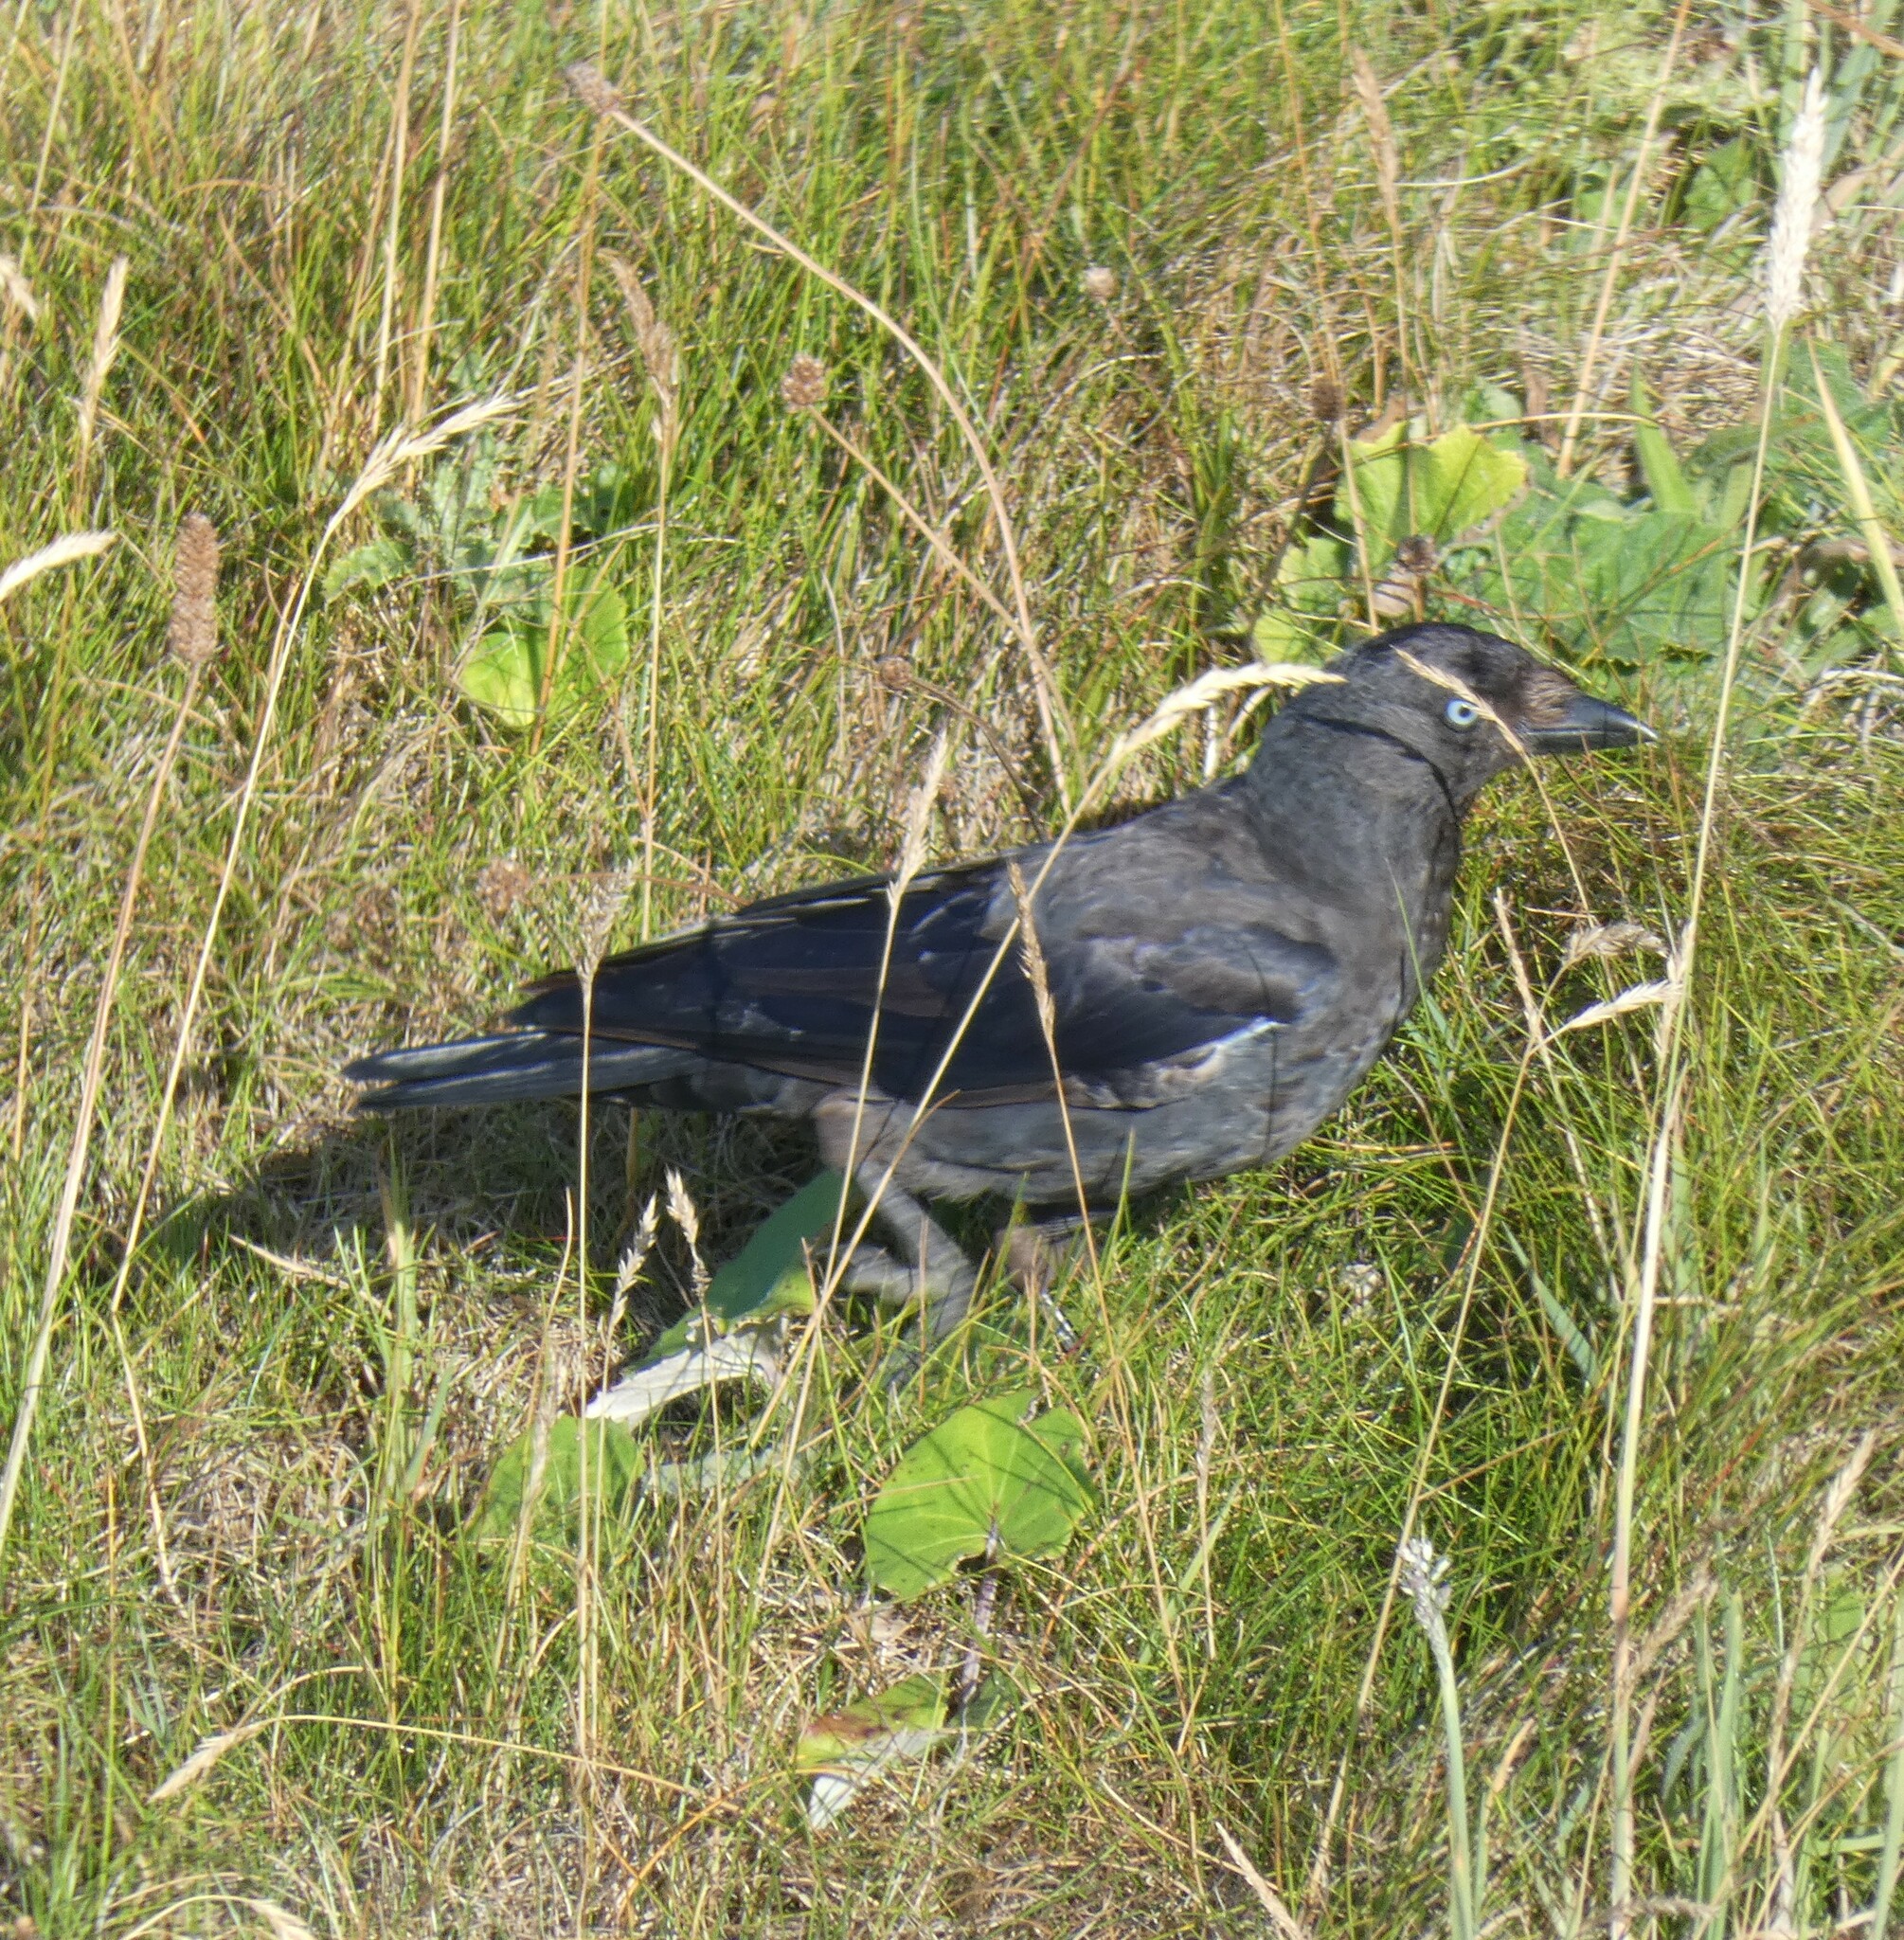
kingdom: Animalia
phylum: Chordata
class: Aves
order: Passeriformes
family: Corvidae
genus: Coloeus
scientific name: Coloeus monedula
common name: Western jackdaw
